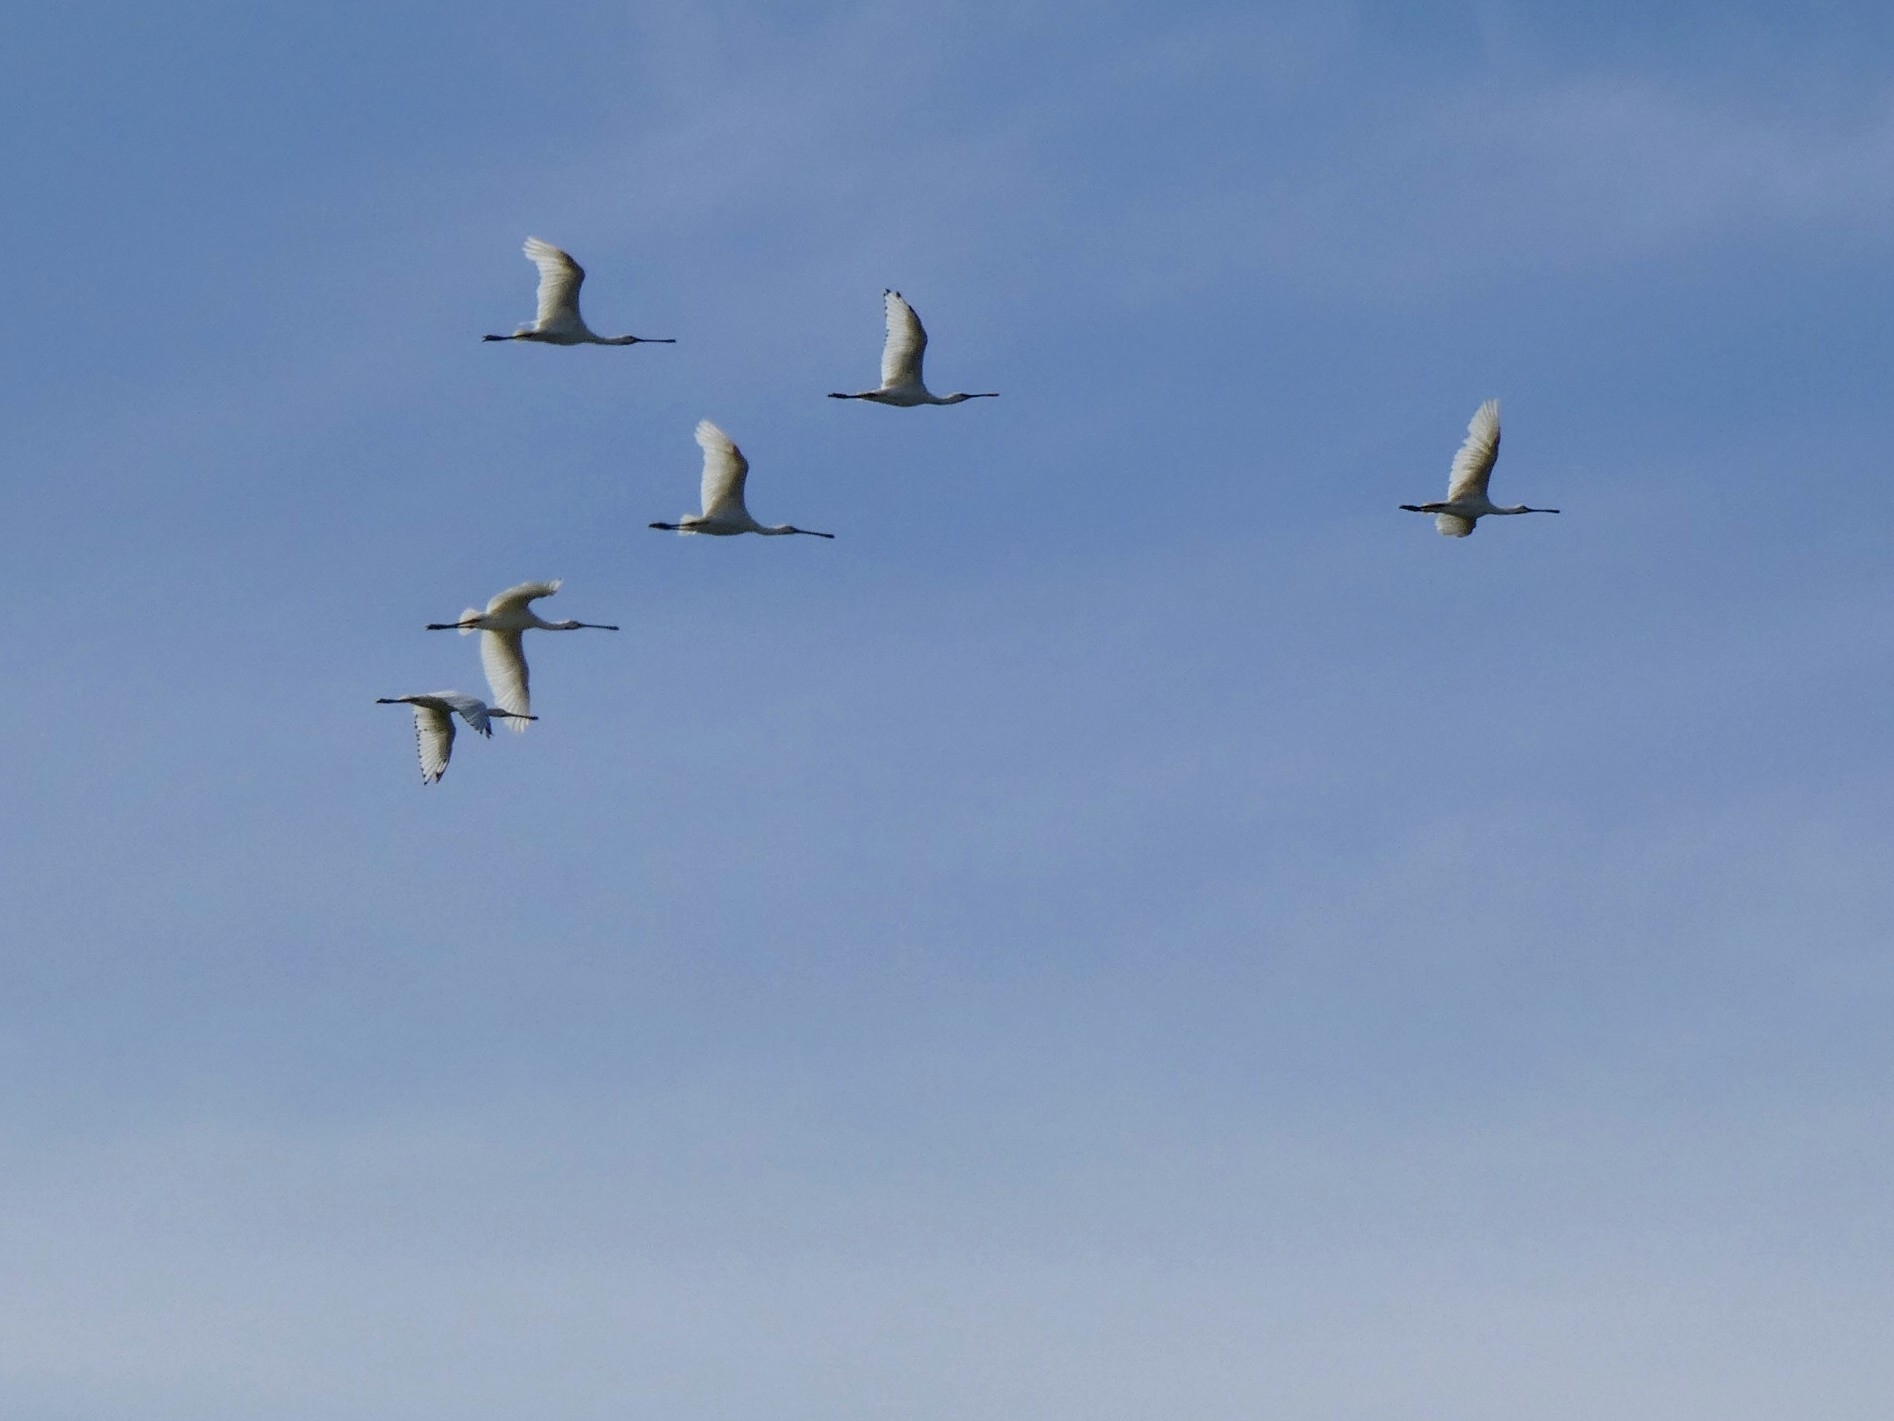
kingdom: Animalia
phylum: Chordata
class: Aves
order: Pelecaniformes
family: Threskiornithidae
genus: Platalea
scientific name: Platalea leucorodia
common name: Eurasian spoonbill
